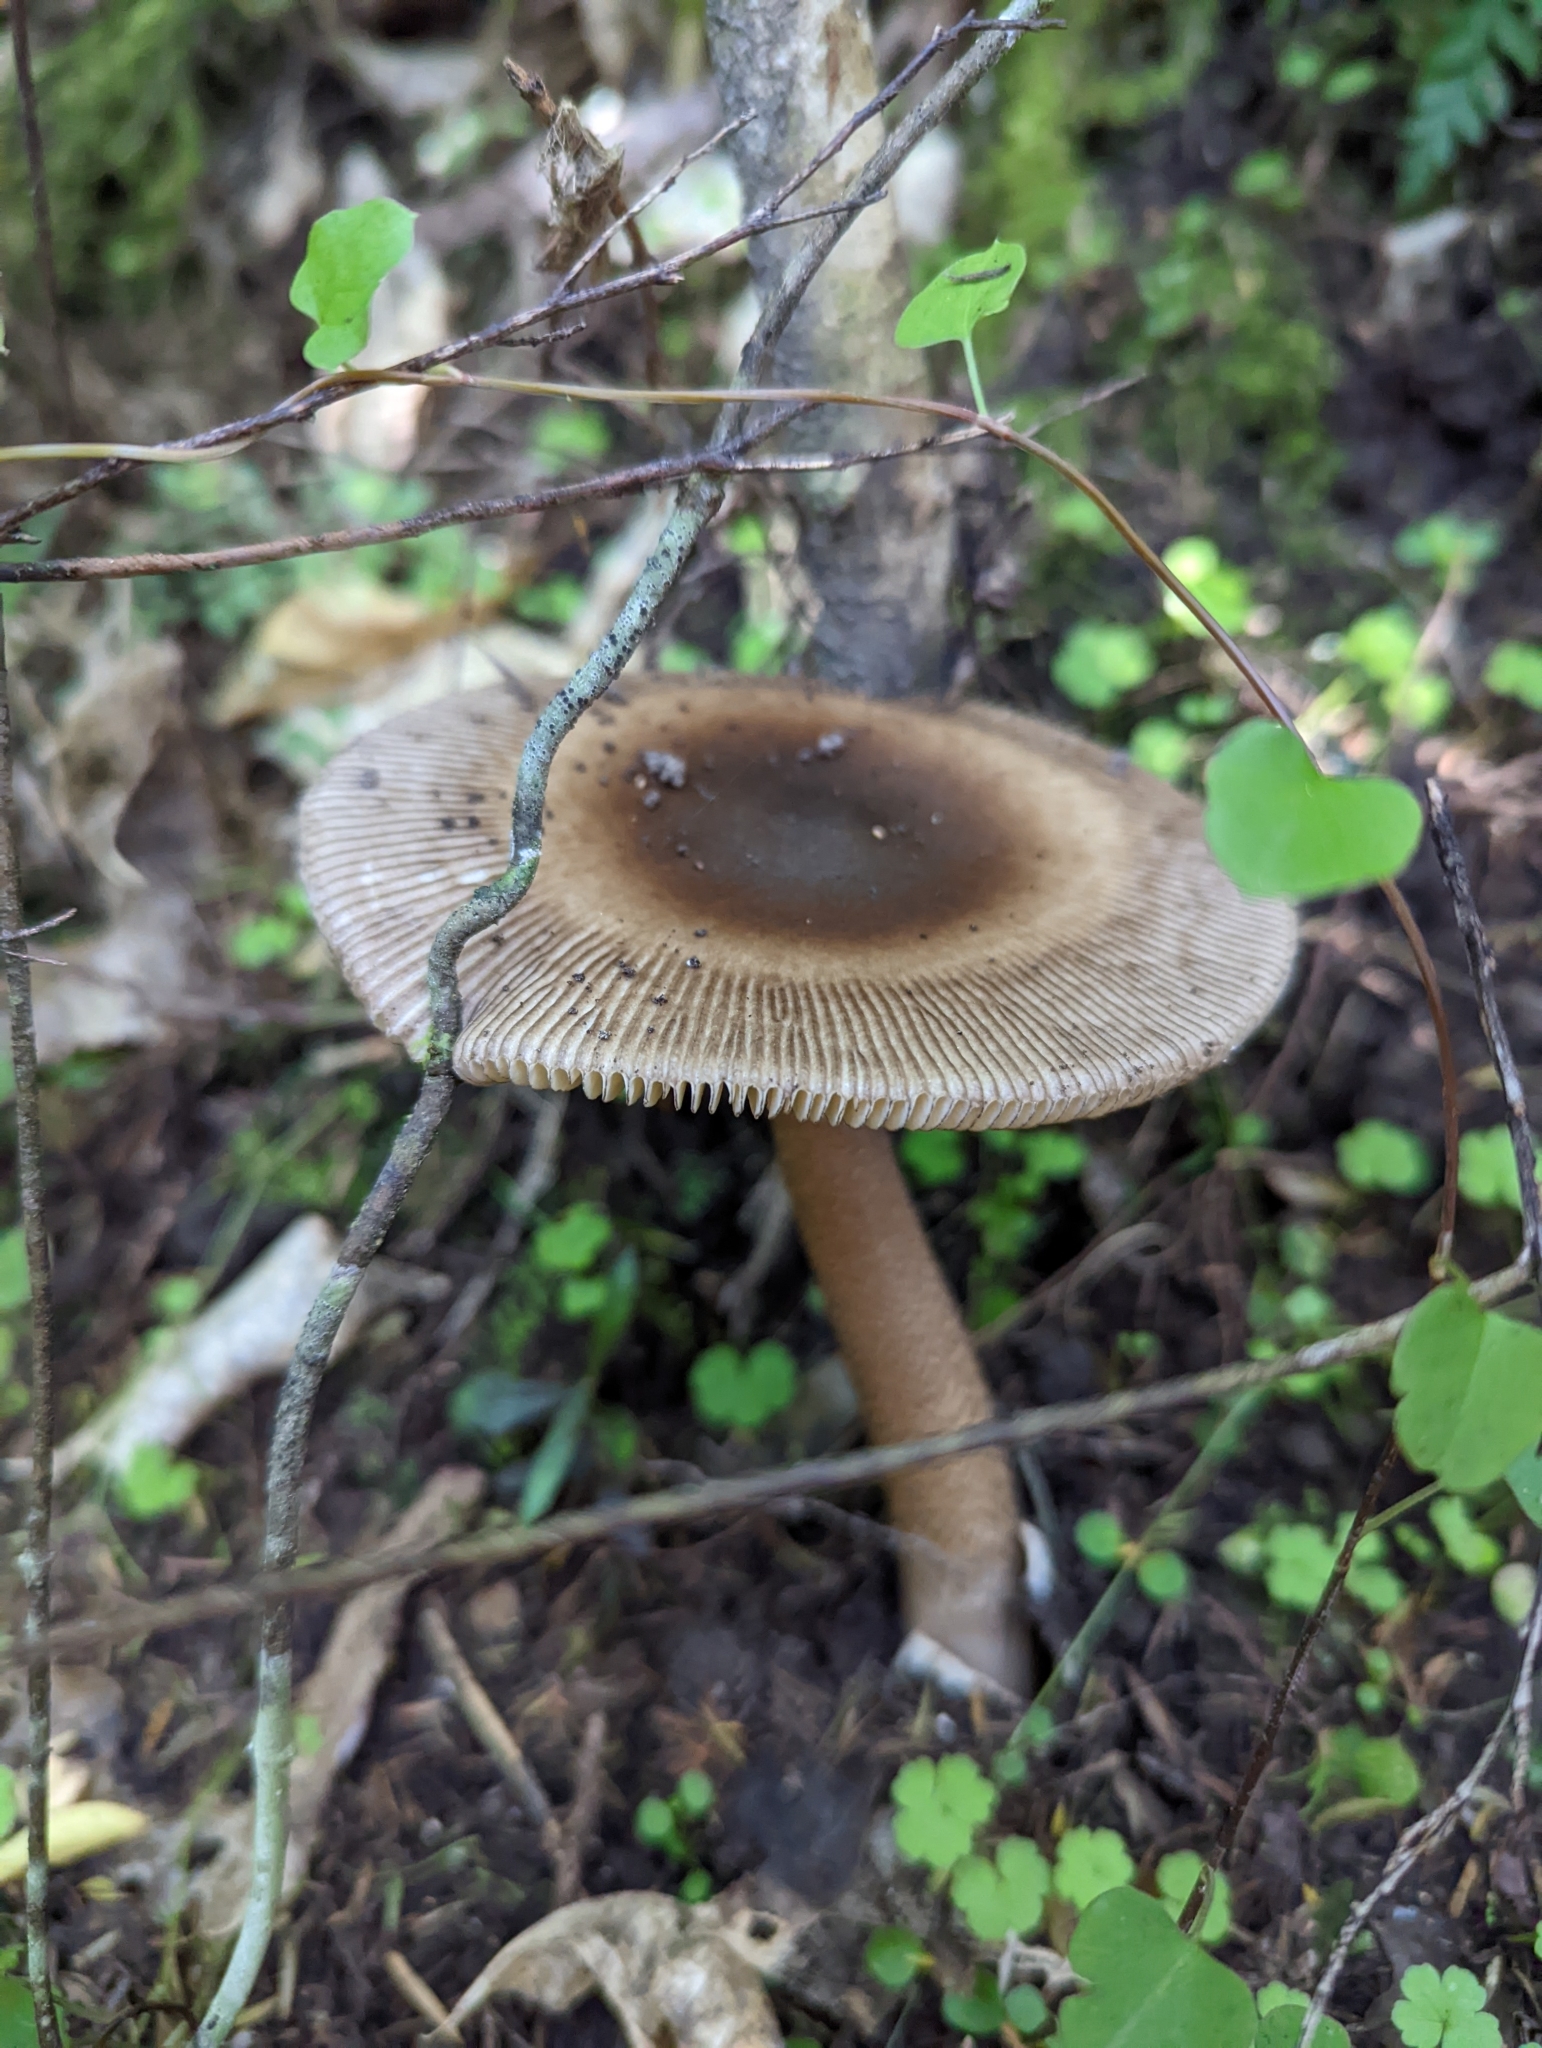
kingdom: Fungi
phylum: Basidiomycota
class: Agaricomycetes
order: Agaricales
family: Amanitaceae
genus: Amanita
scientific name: Amanita pekeoides
